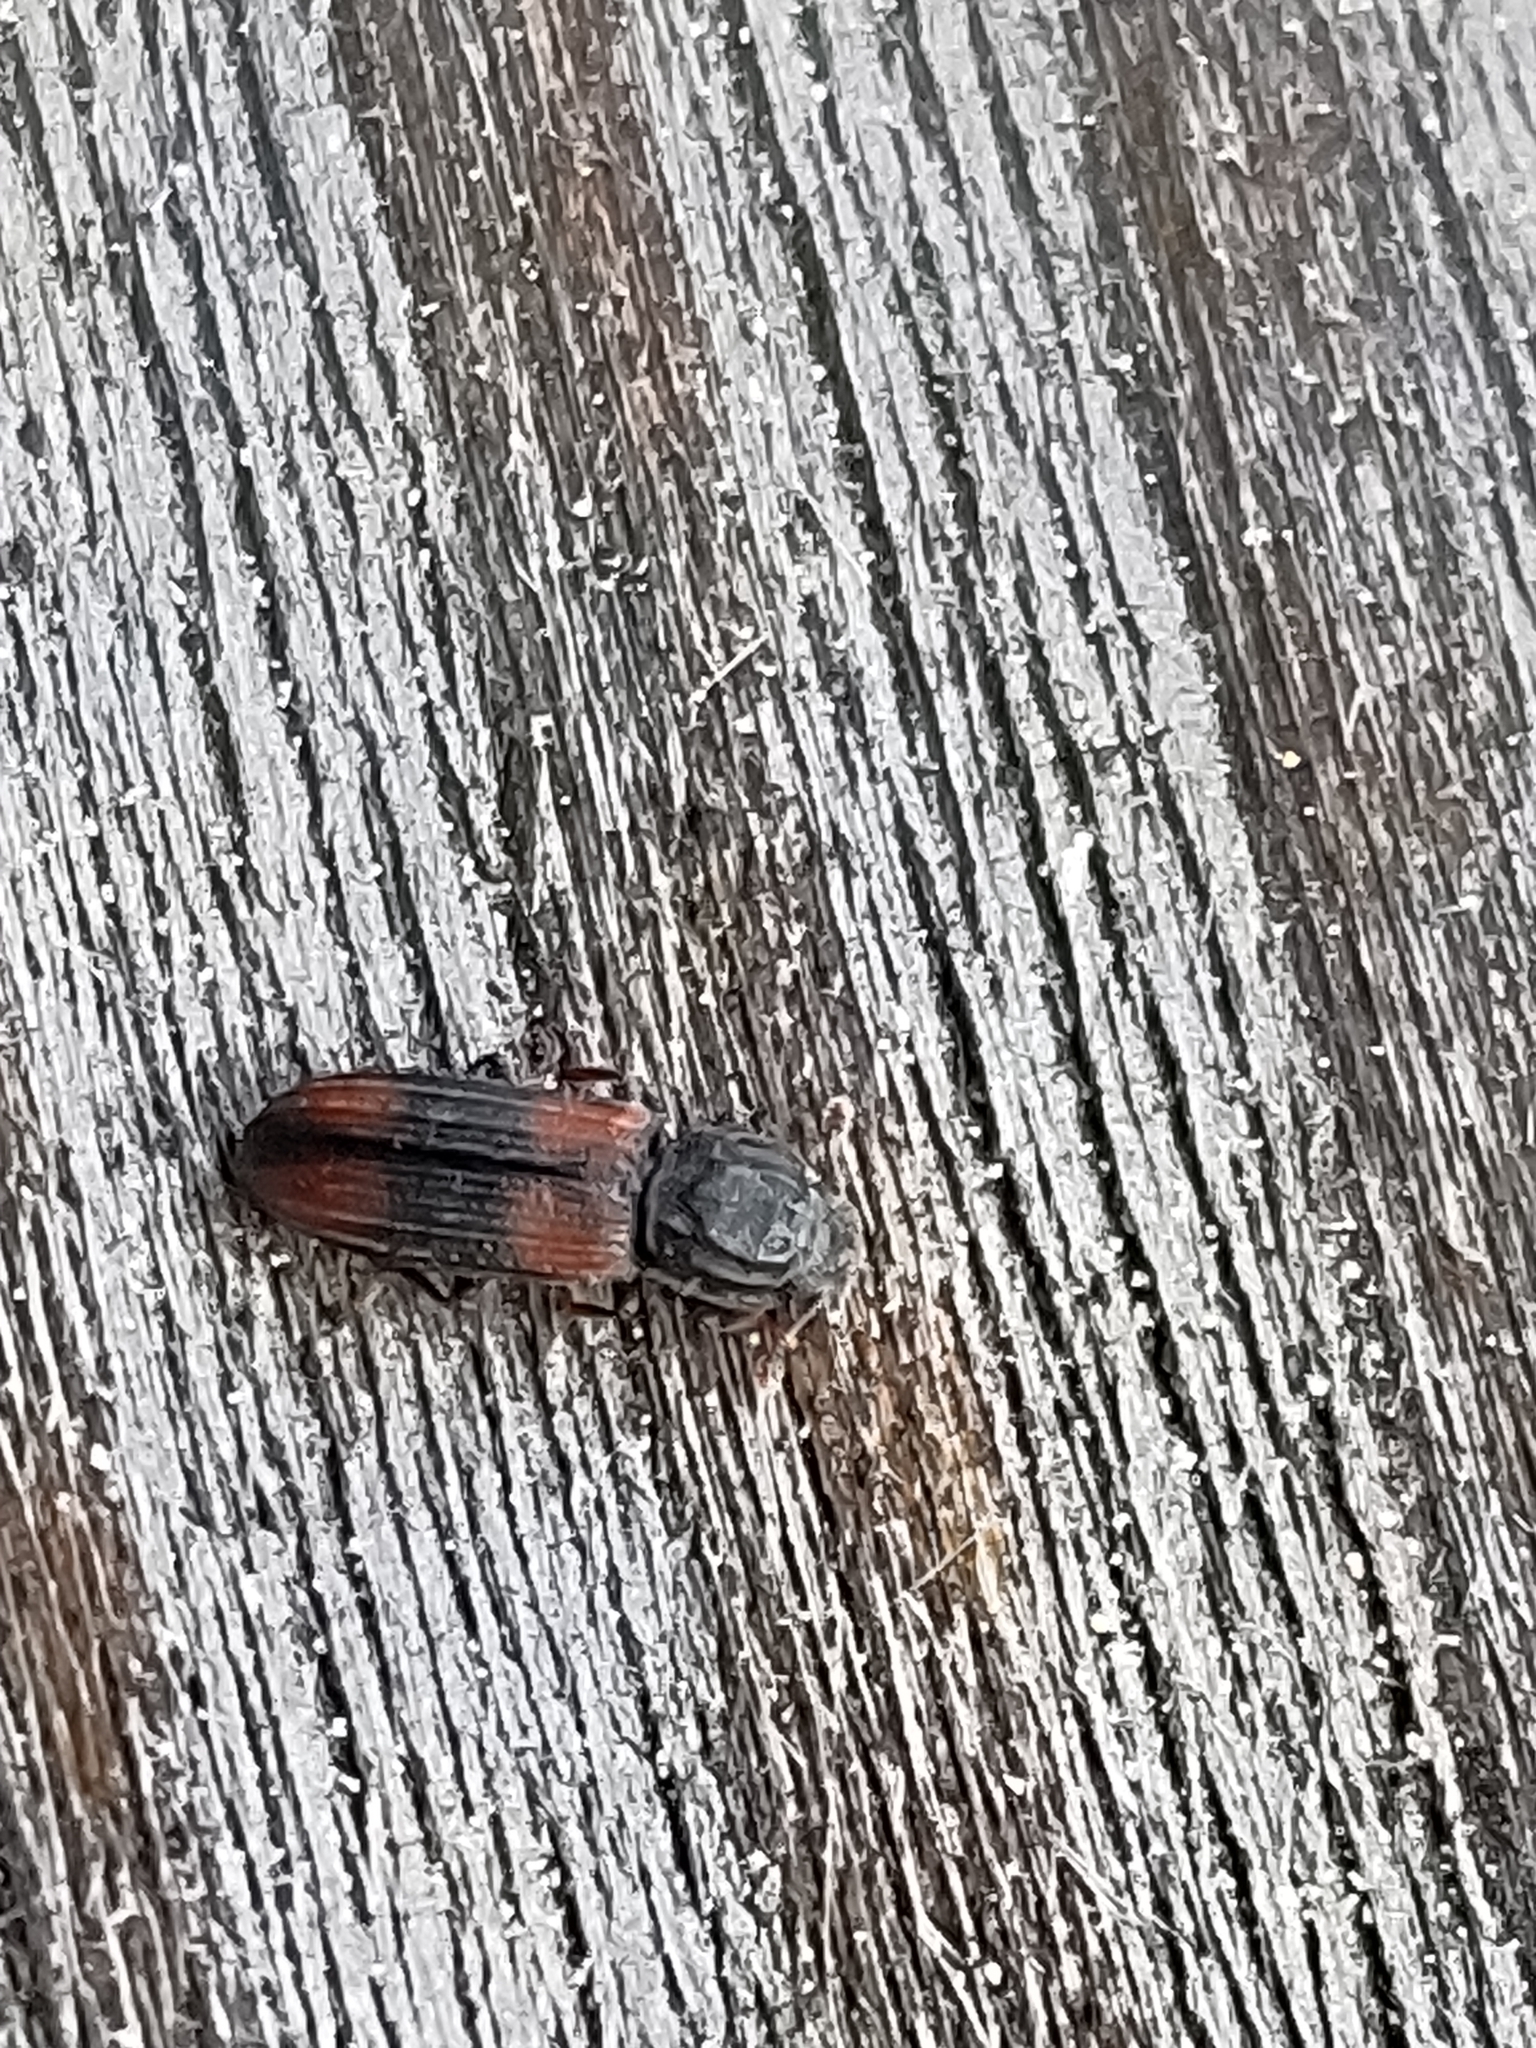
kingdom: Animalia
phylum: Arthropoda
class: Insecta
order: Coleoptera
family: Zopheridae
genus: Bitoma
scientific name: Bitoma crenata
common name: Bark beetle
